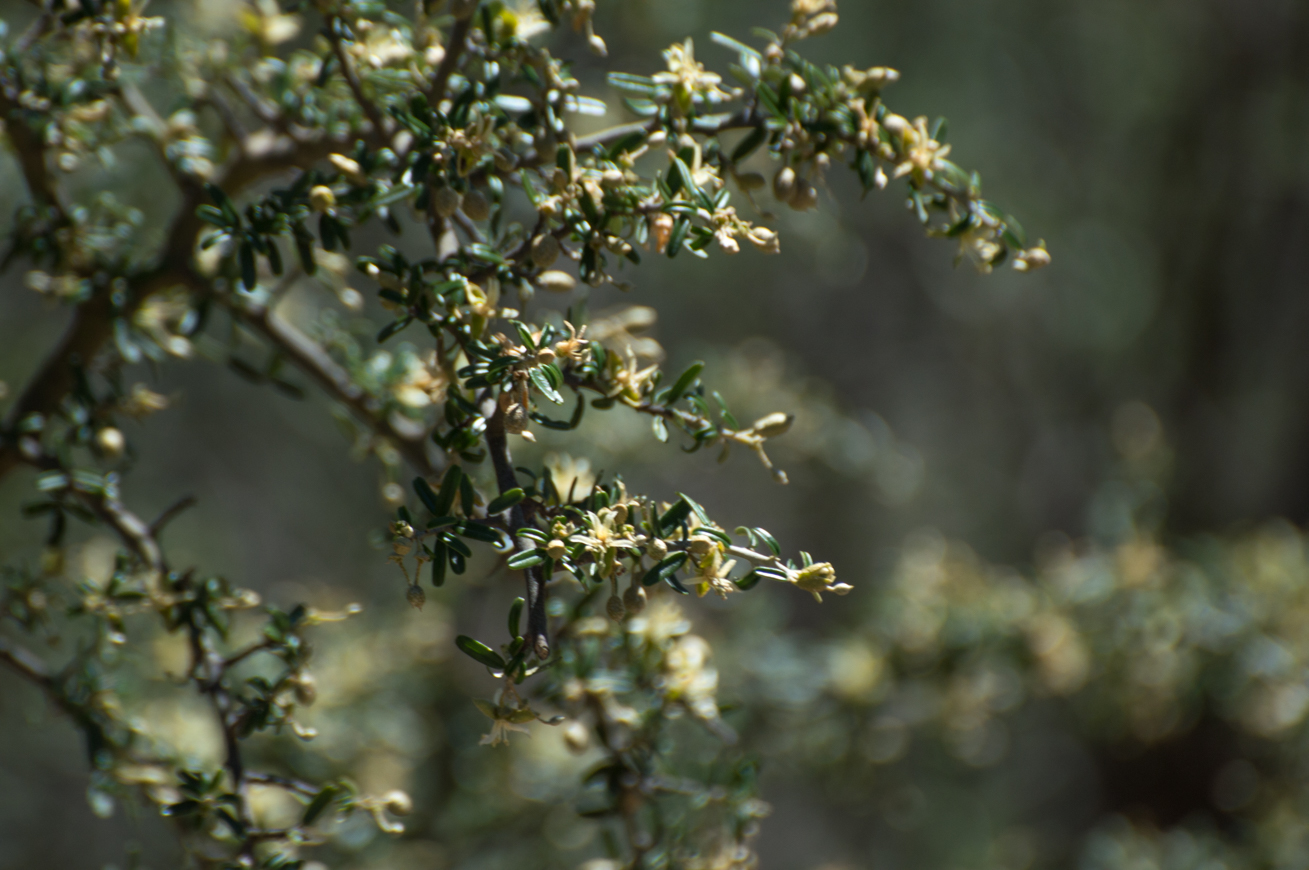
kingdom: Plantae
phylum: Tracheophyta
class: Magnoliopsida
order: Brassicales
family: Capparaceae
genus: Atamisquea
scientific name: Atamisquea emarginata
